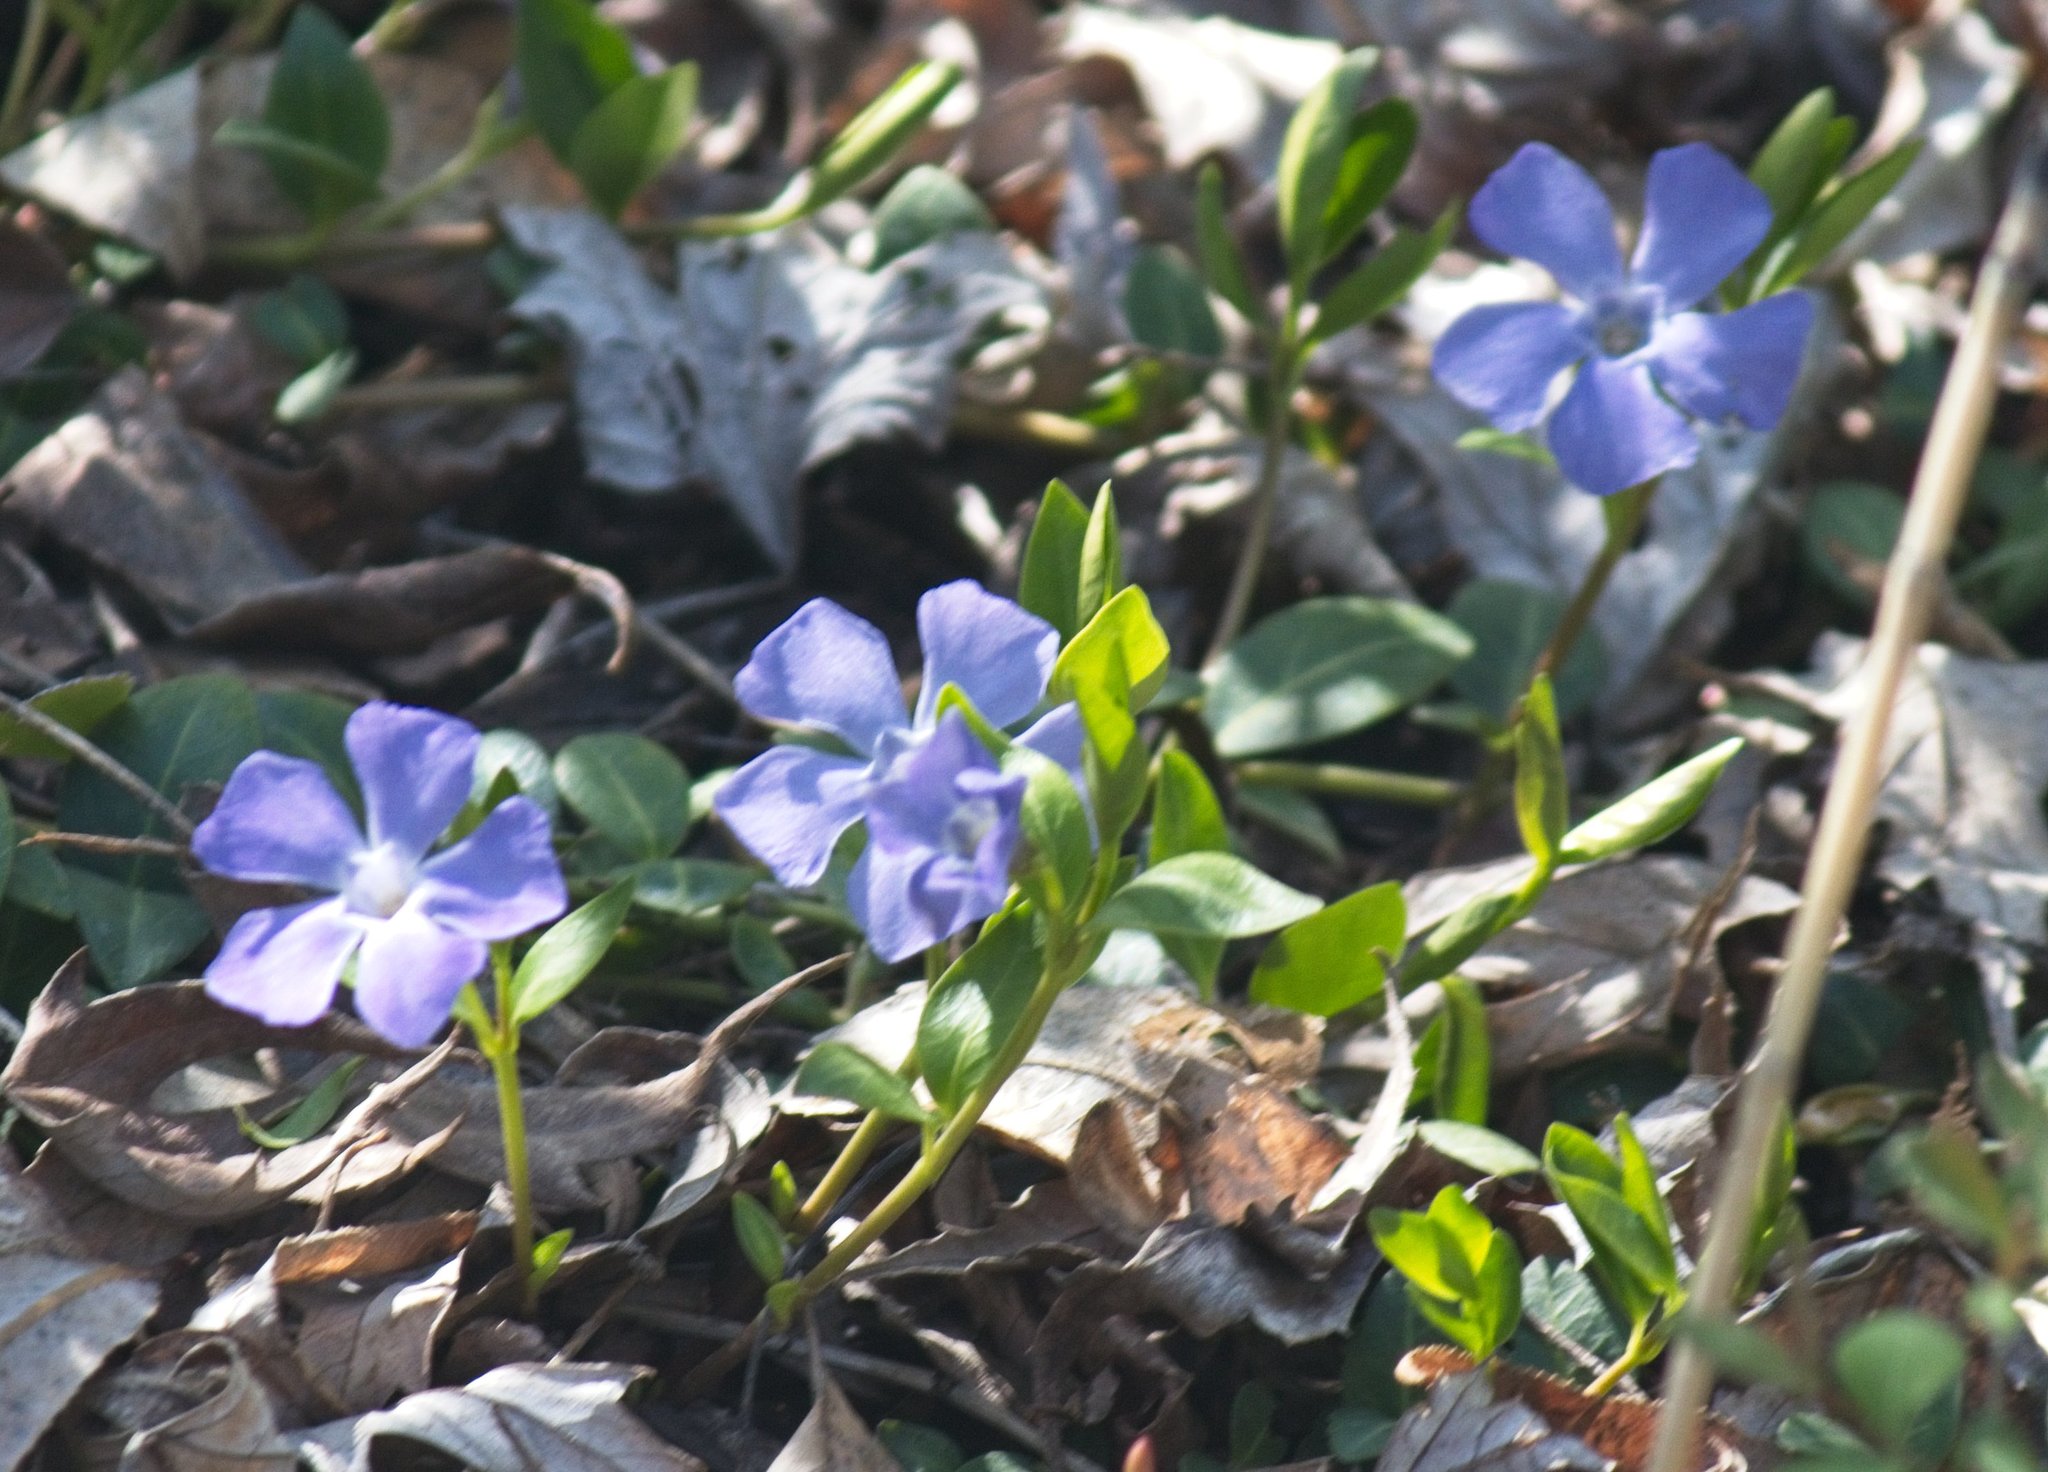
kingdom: Plantae
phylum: Tracheophyta
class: Magnoliopsida
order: Gentianales
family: Apocynaceae
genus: Vinca
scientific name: Vinca minor
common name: Lesser periwinkle
